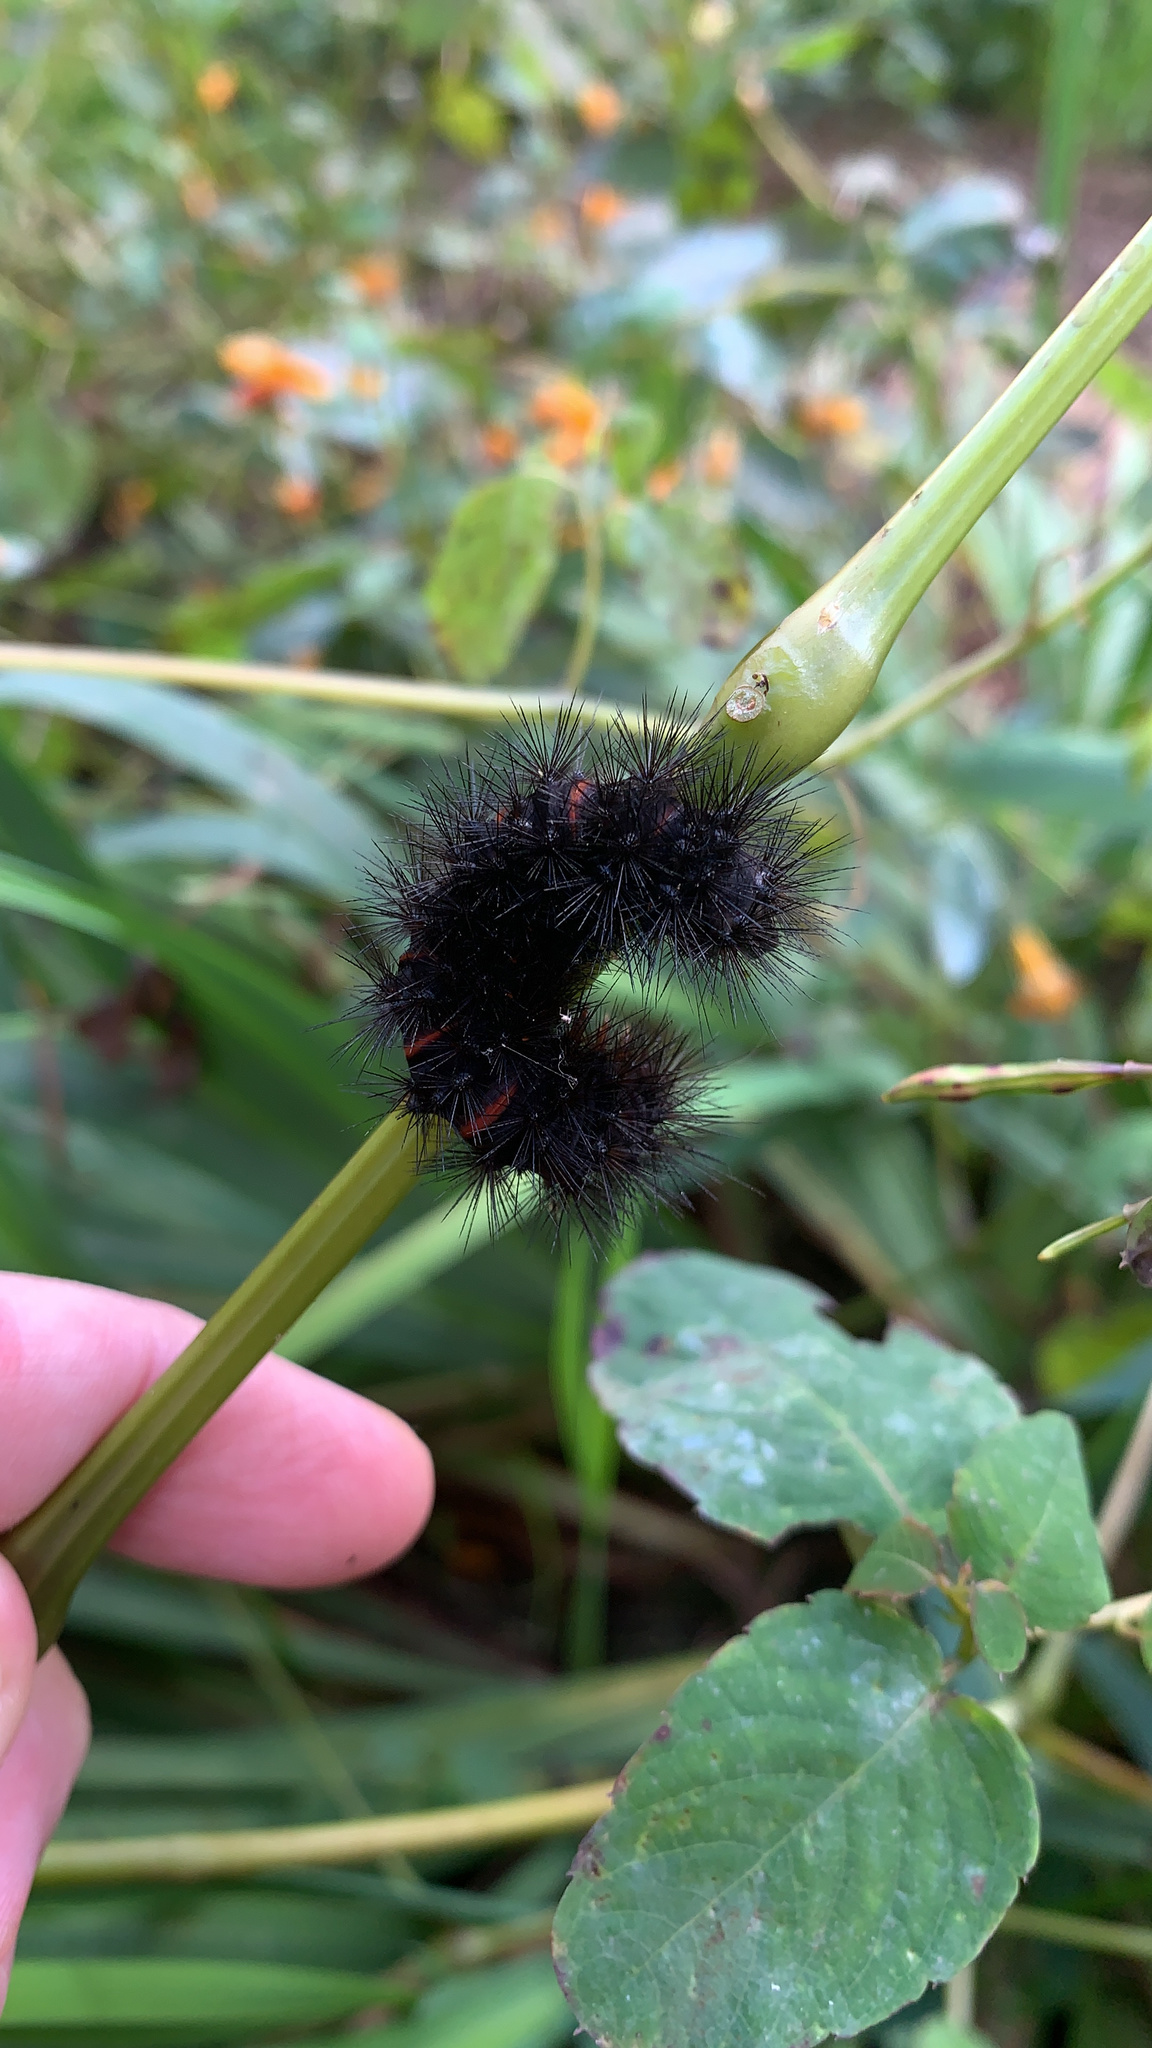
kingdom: Animalia
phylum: Arthropoda
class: Insecta
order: Lepidoptera
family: Erebidae
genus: Hypercompe
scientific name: Hypercompe scribonia
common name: Giant leopard moth
